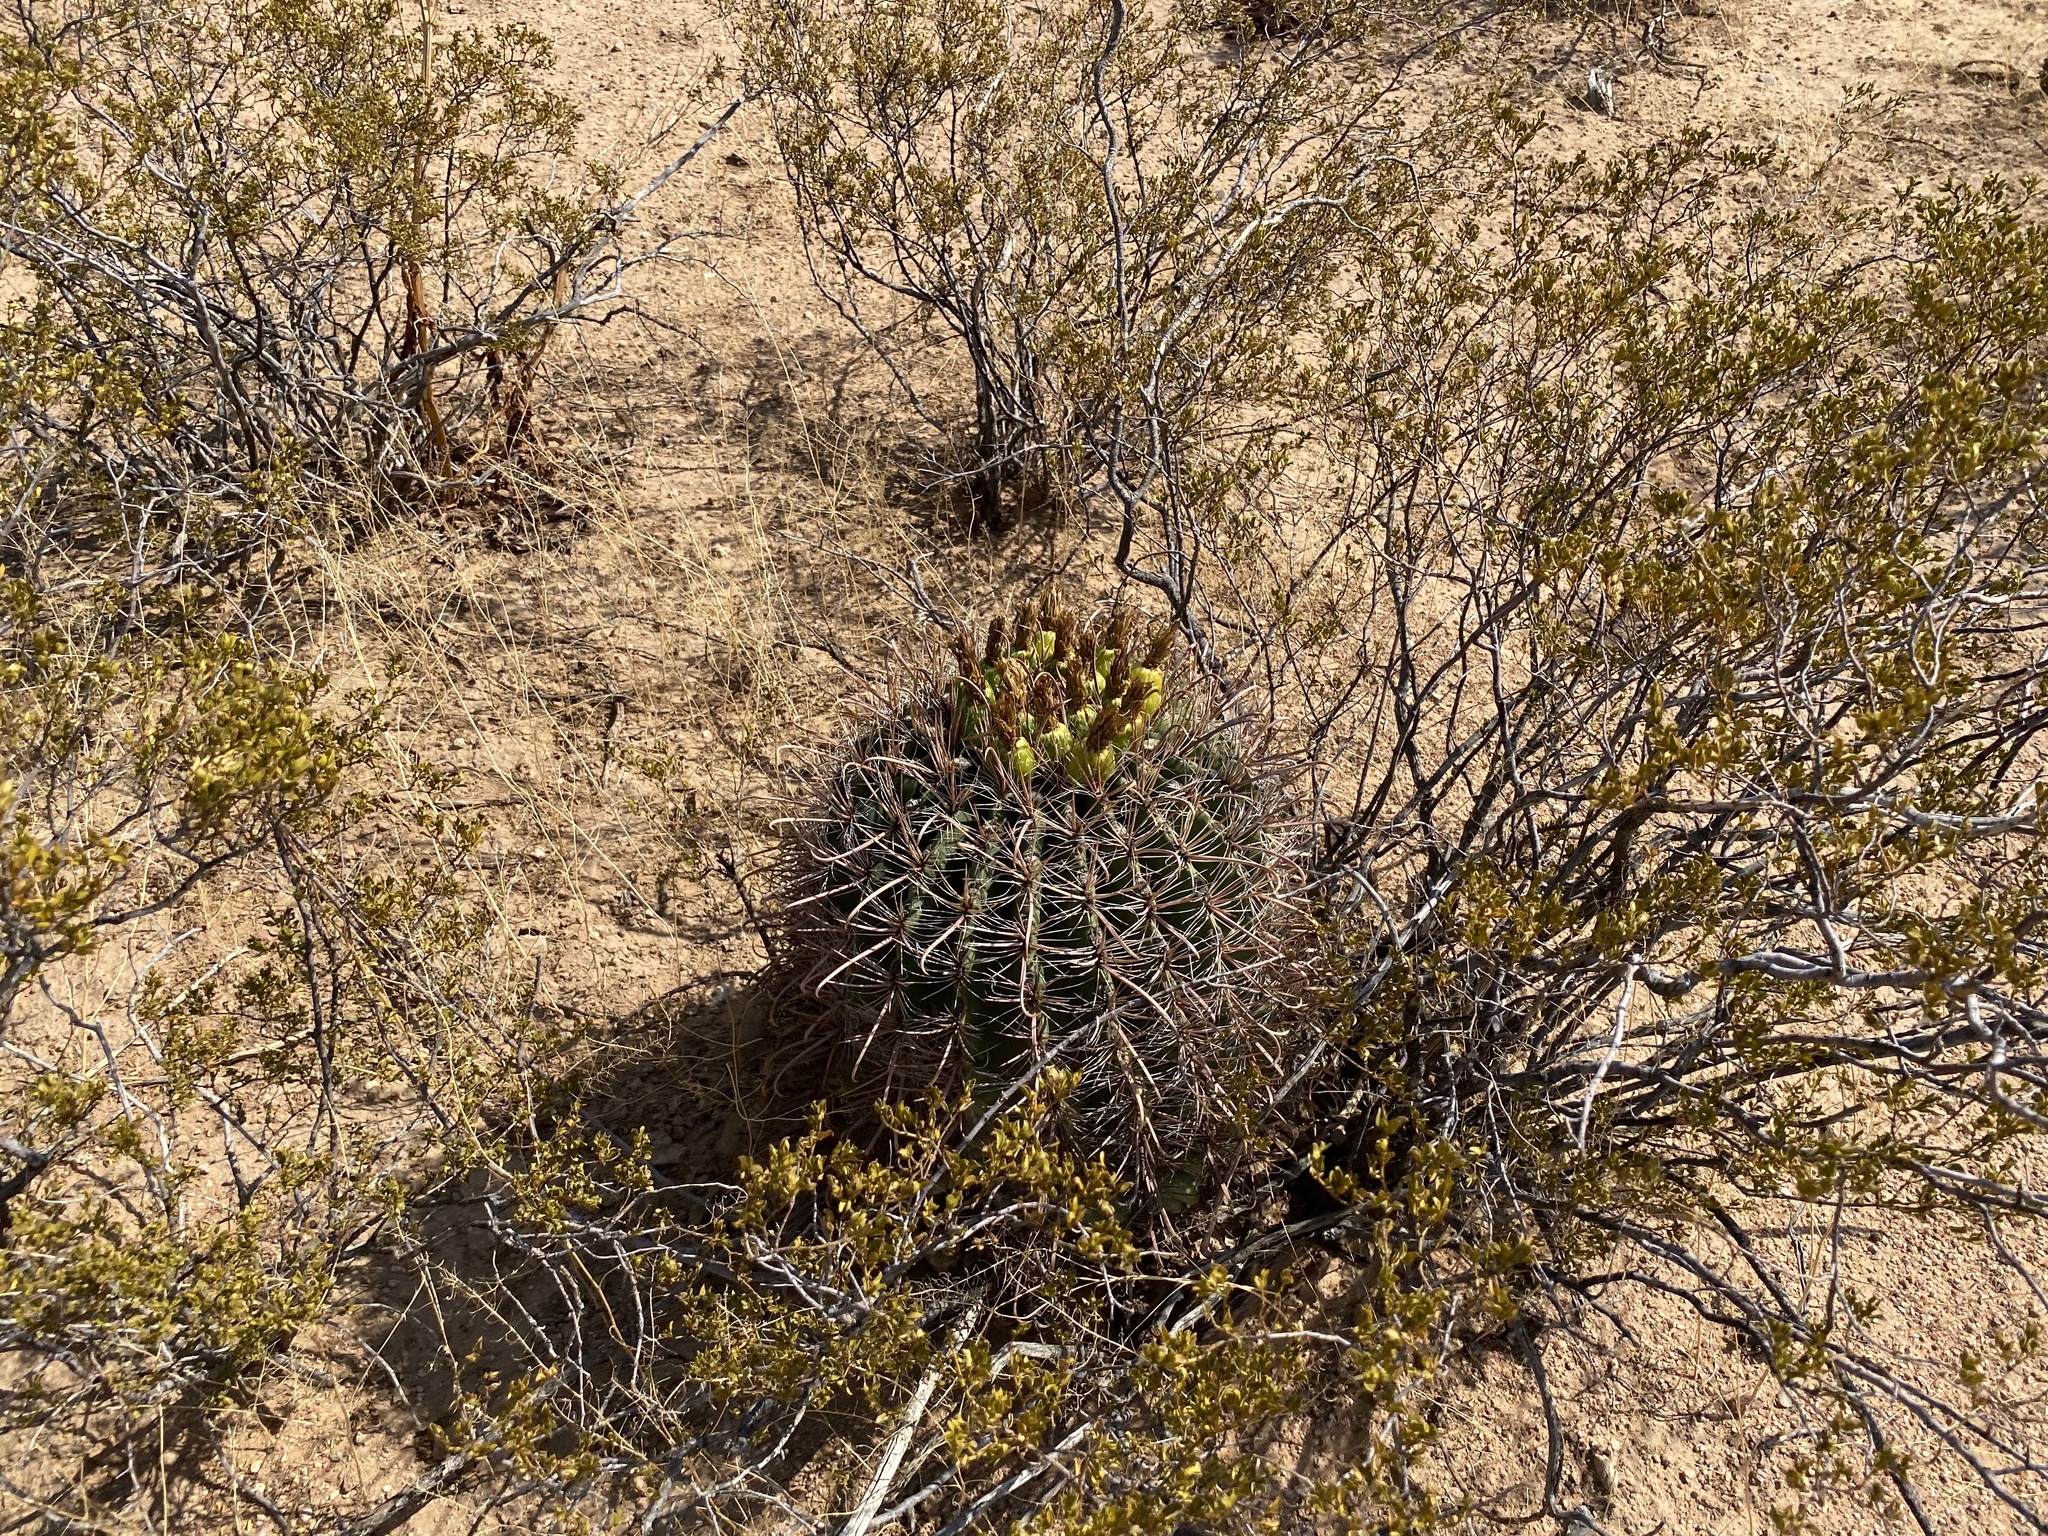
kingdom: Plantae
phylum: Tracheophyta
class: Magnoliopsida
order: Caryophyllales
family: Cactaceae
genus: Ferocactus
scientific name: Ferocactus wislizeni
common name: Candy barrel cactus
